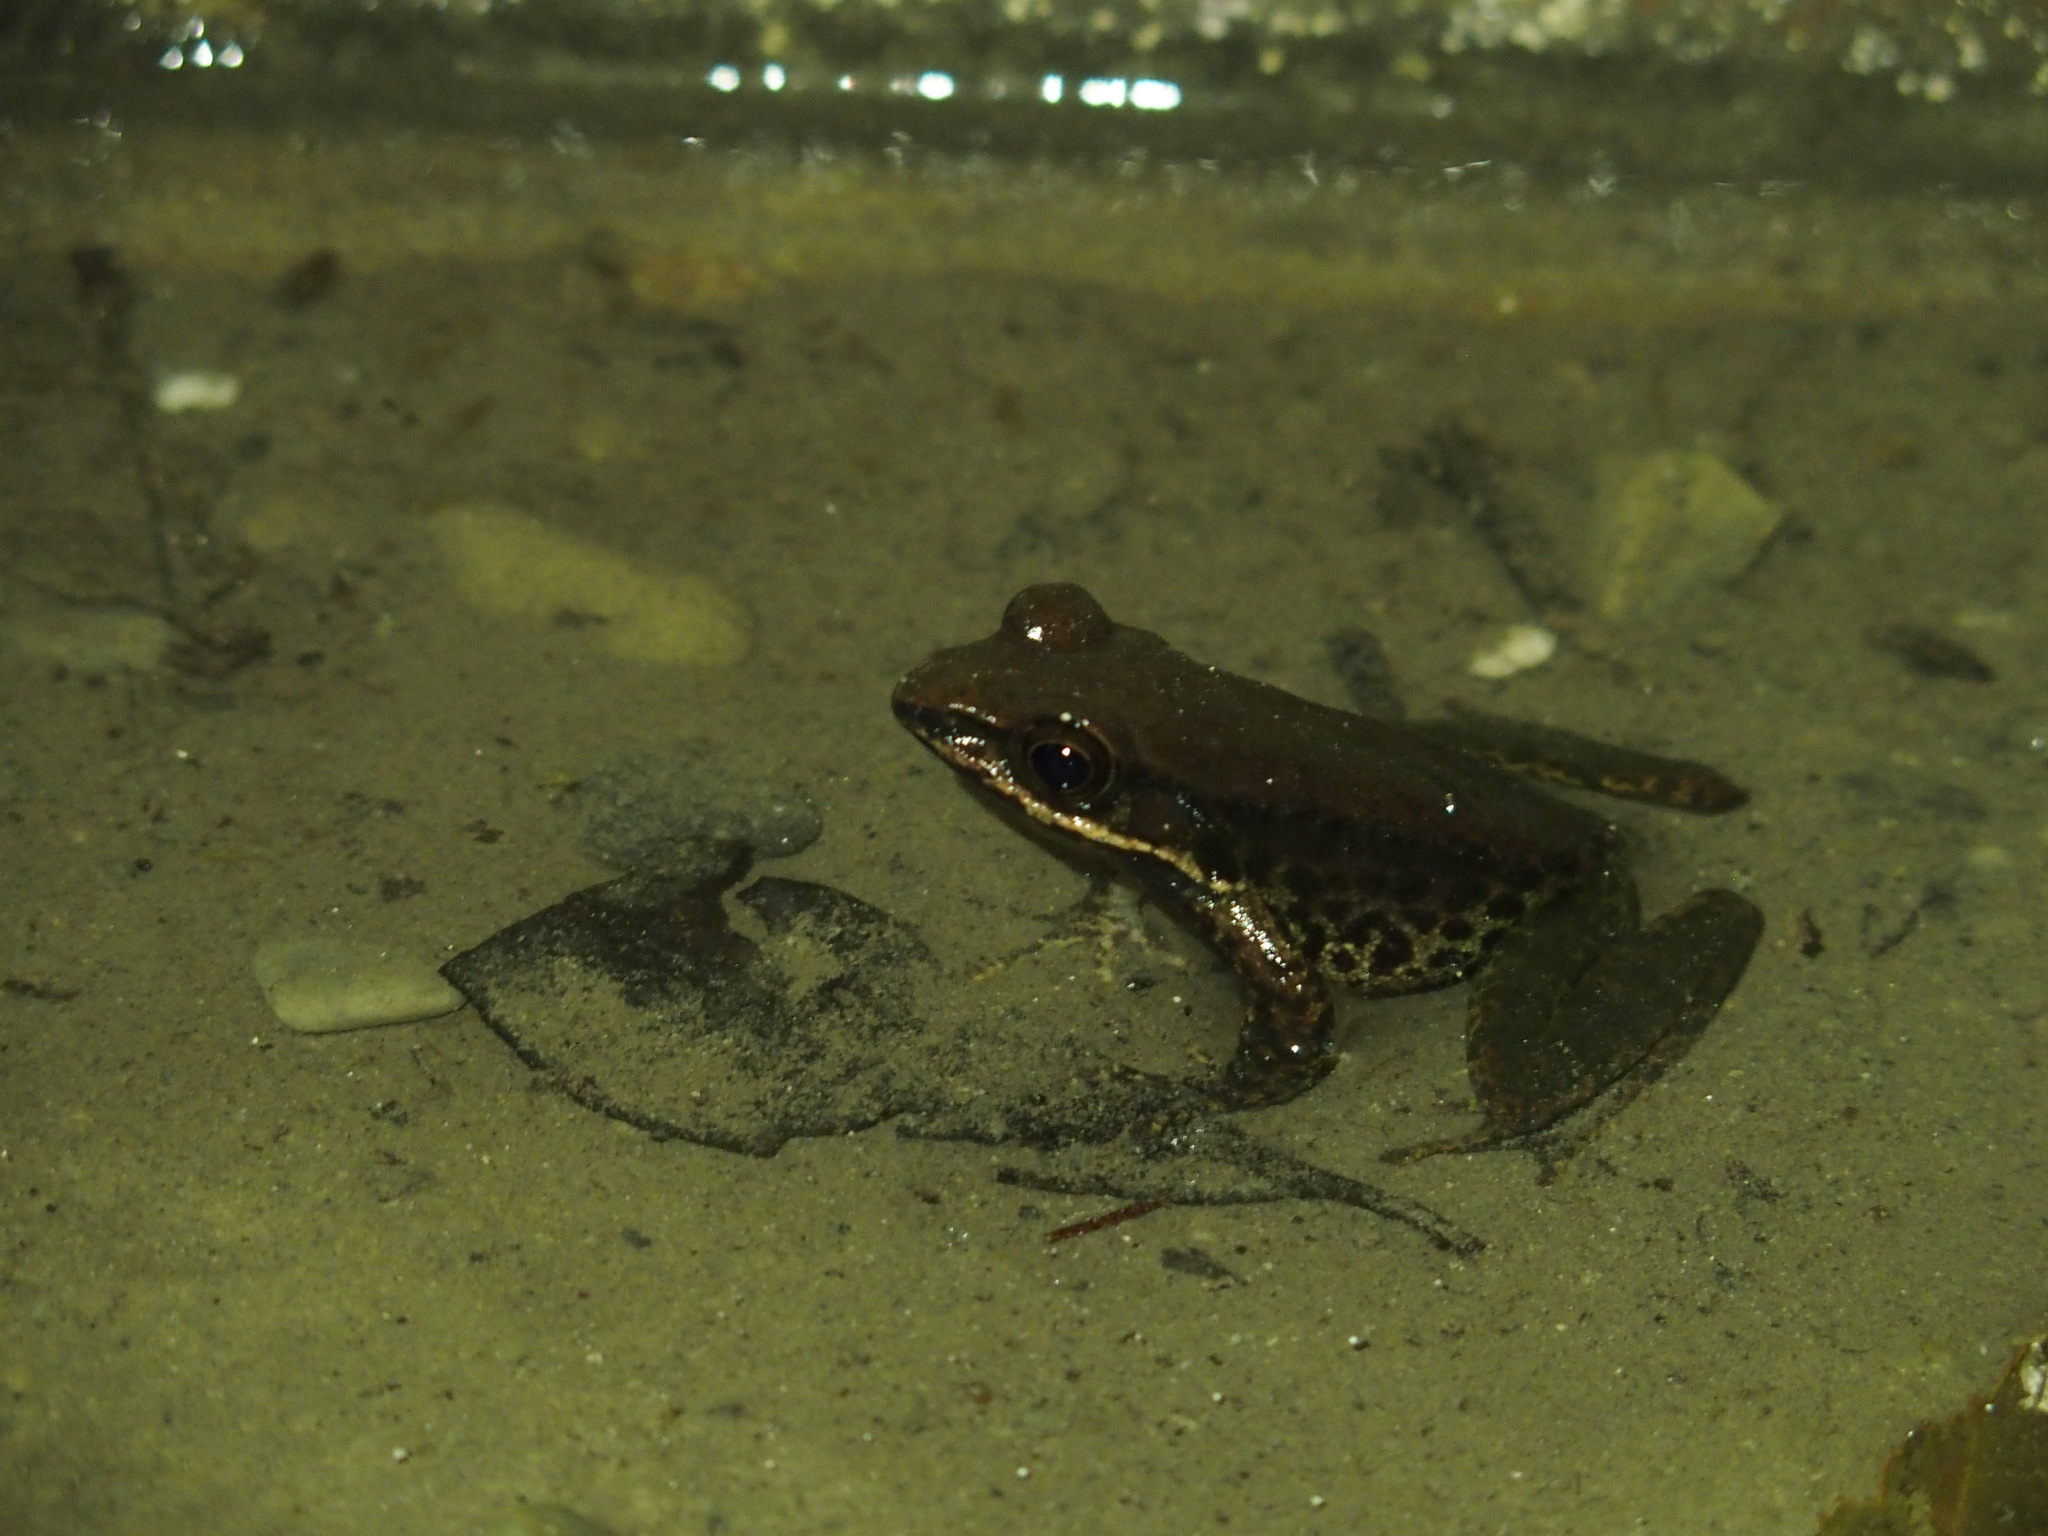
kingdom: Animalia
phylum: Chordata
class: Amphibia
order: Anura
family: Ranidae
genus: Odorrana
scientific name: Odorrana swinhoana
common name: Bangkimtsing frog
